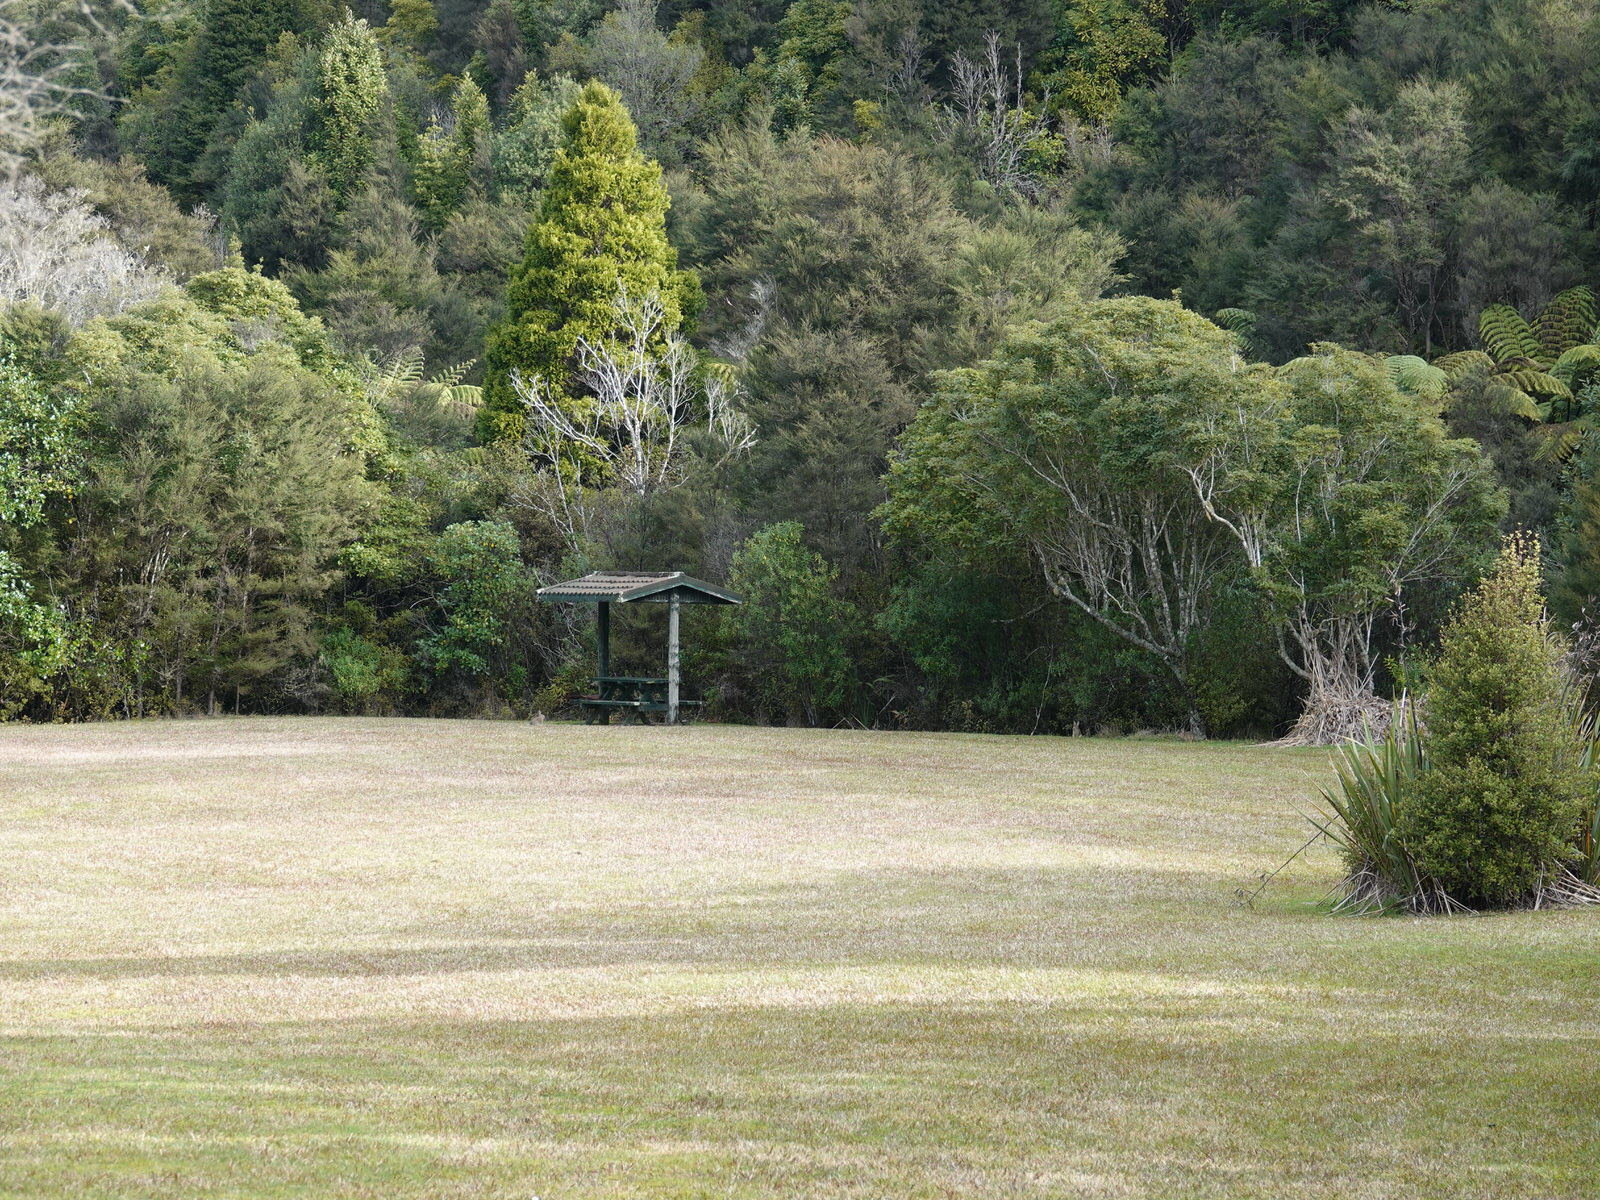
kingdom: Animalia
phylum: Chordata
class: Mammalia
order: Lagomorpha
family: Leporidae
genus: Oryctolagus
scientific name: Oryctolagus cuniculus
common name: European rabbit
